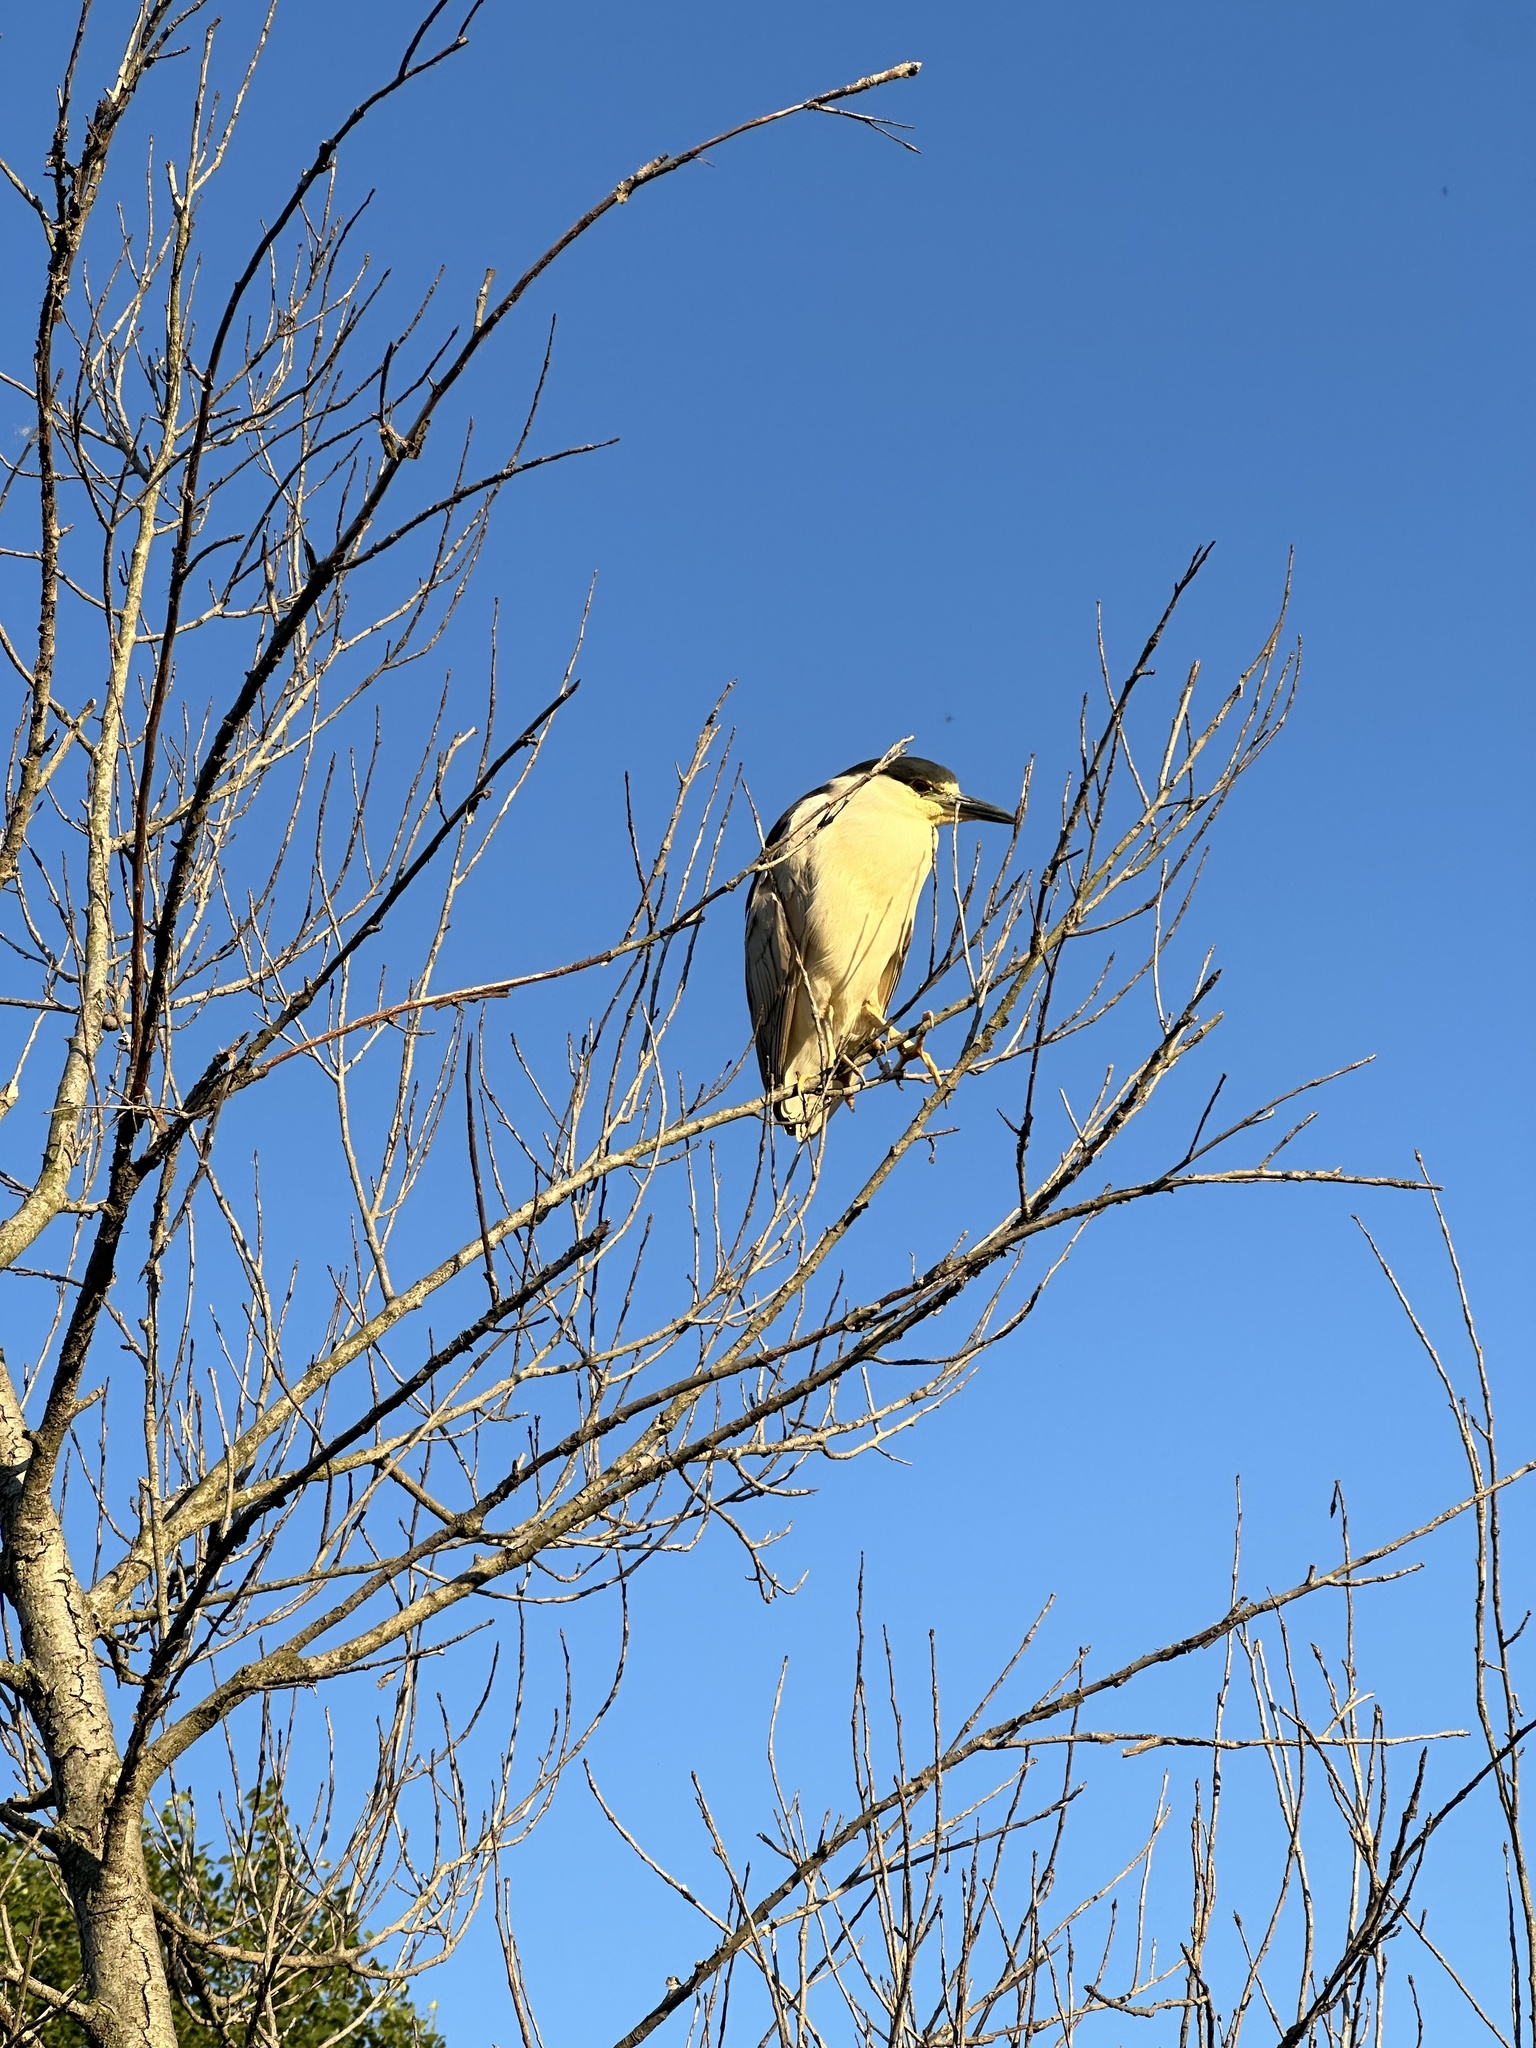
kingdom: Animalia
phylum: Chordata
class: Aves
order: Pelecaniformes
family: Ardeidae
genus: Nycticorax
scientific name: Nycticorax nycticorax
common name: Black-crowned night heron
